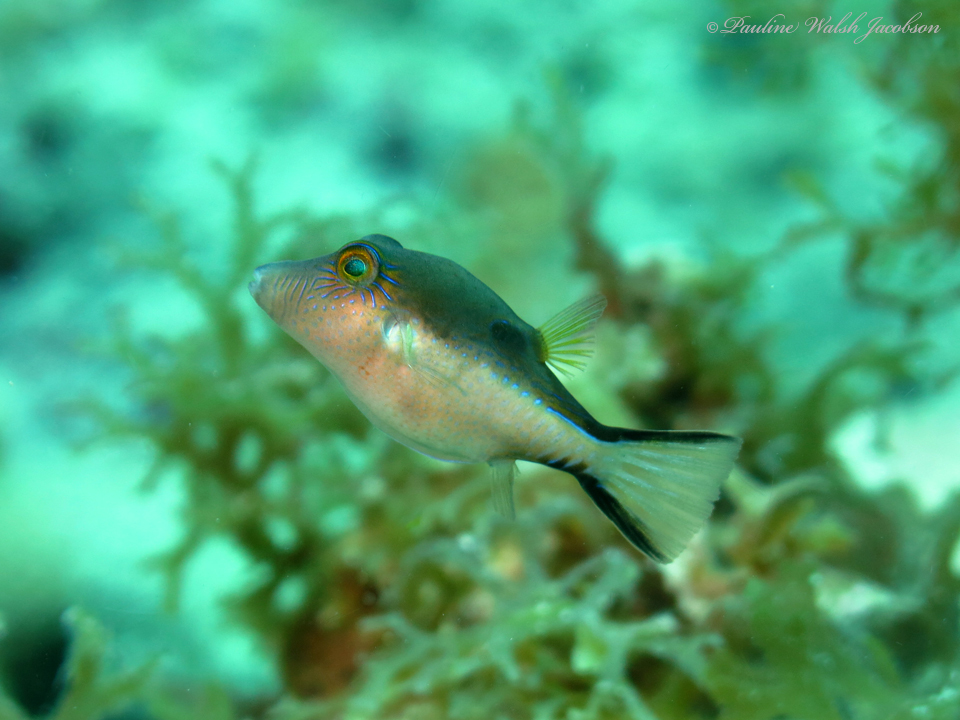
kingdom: Animalia
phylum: Chordata
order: Tetraodontiformes
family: Tetraodontidae
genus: Canthigaster
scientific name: Canthigaster rostrata
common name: Caribbean sharpnose-puffer
